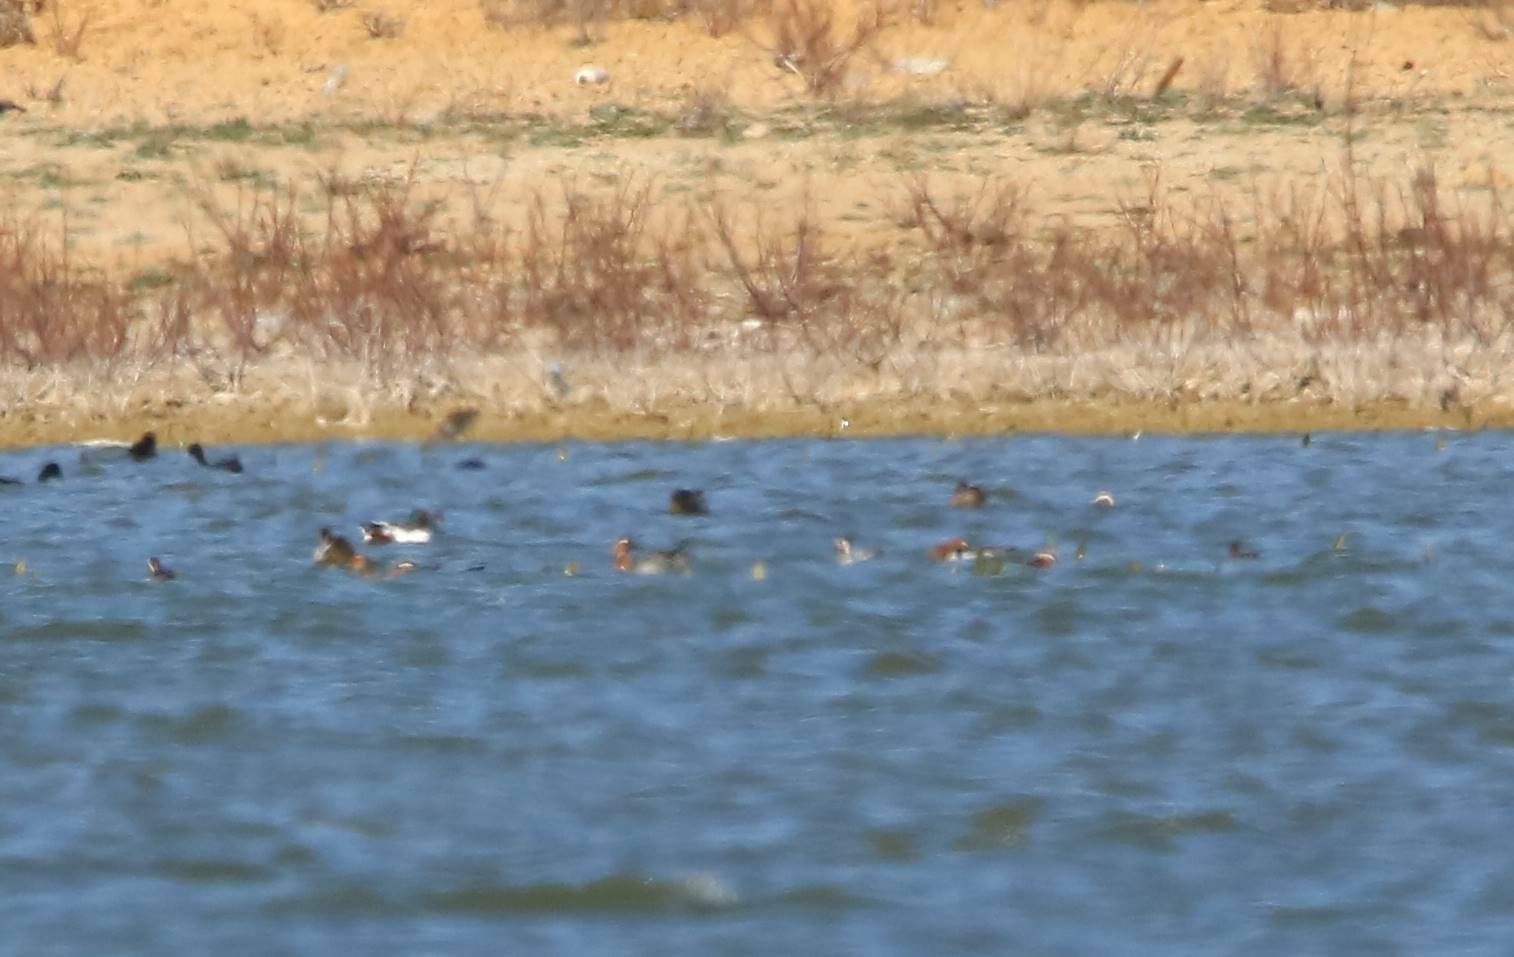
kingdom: Animalia
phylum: Chordata
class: Aves
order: Anseriformes
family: Anatidae
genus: Spatula
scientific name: Spatula querquedula
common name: Garganey
